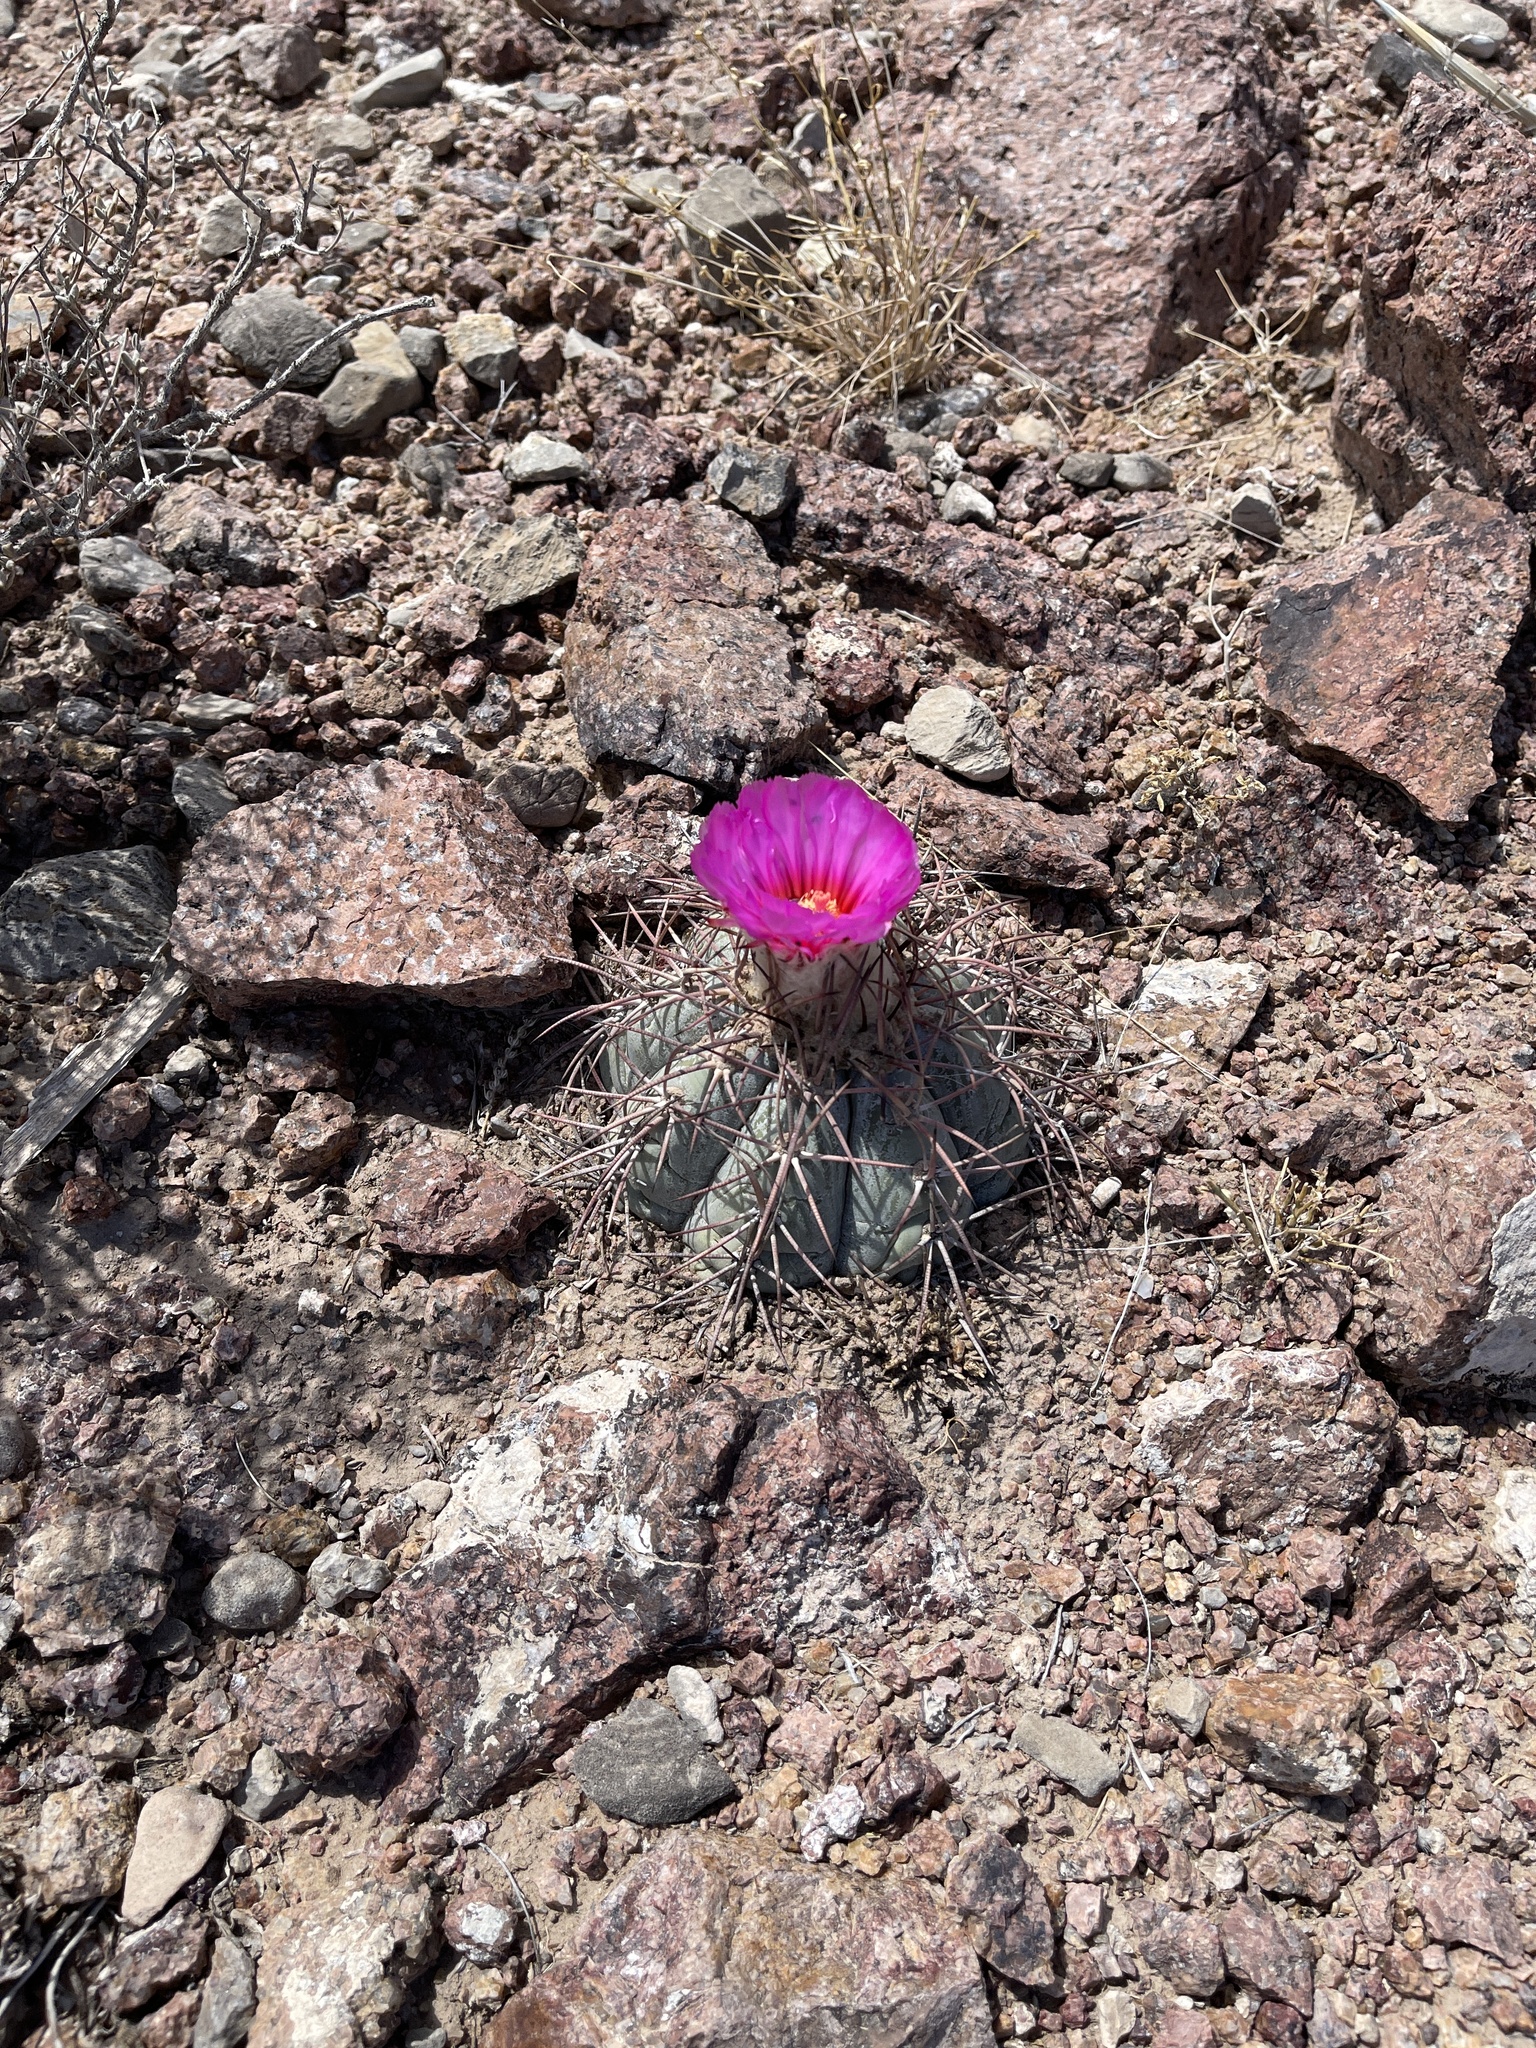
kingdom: Plantae
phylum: Tracheophyta
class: Magnoliopsida
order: Caryophyllales
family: Cactaceae
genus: Echinocactus
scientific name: Echinocactus horizonthalonius
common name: Devilshead
